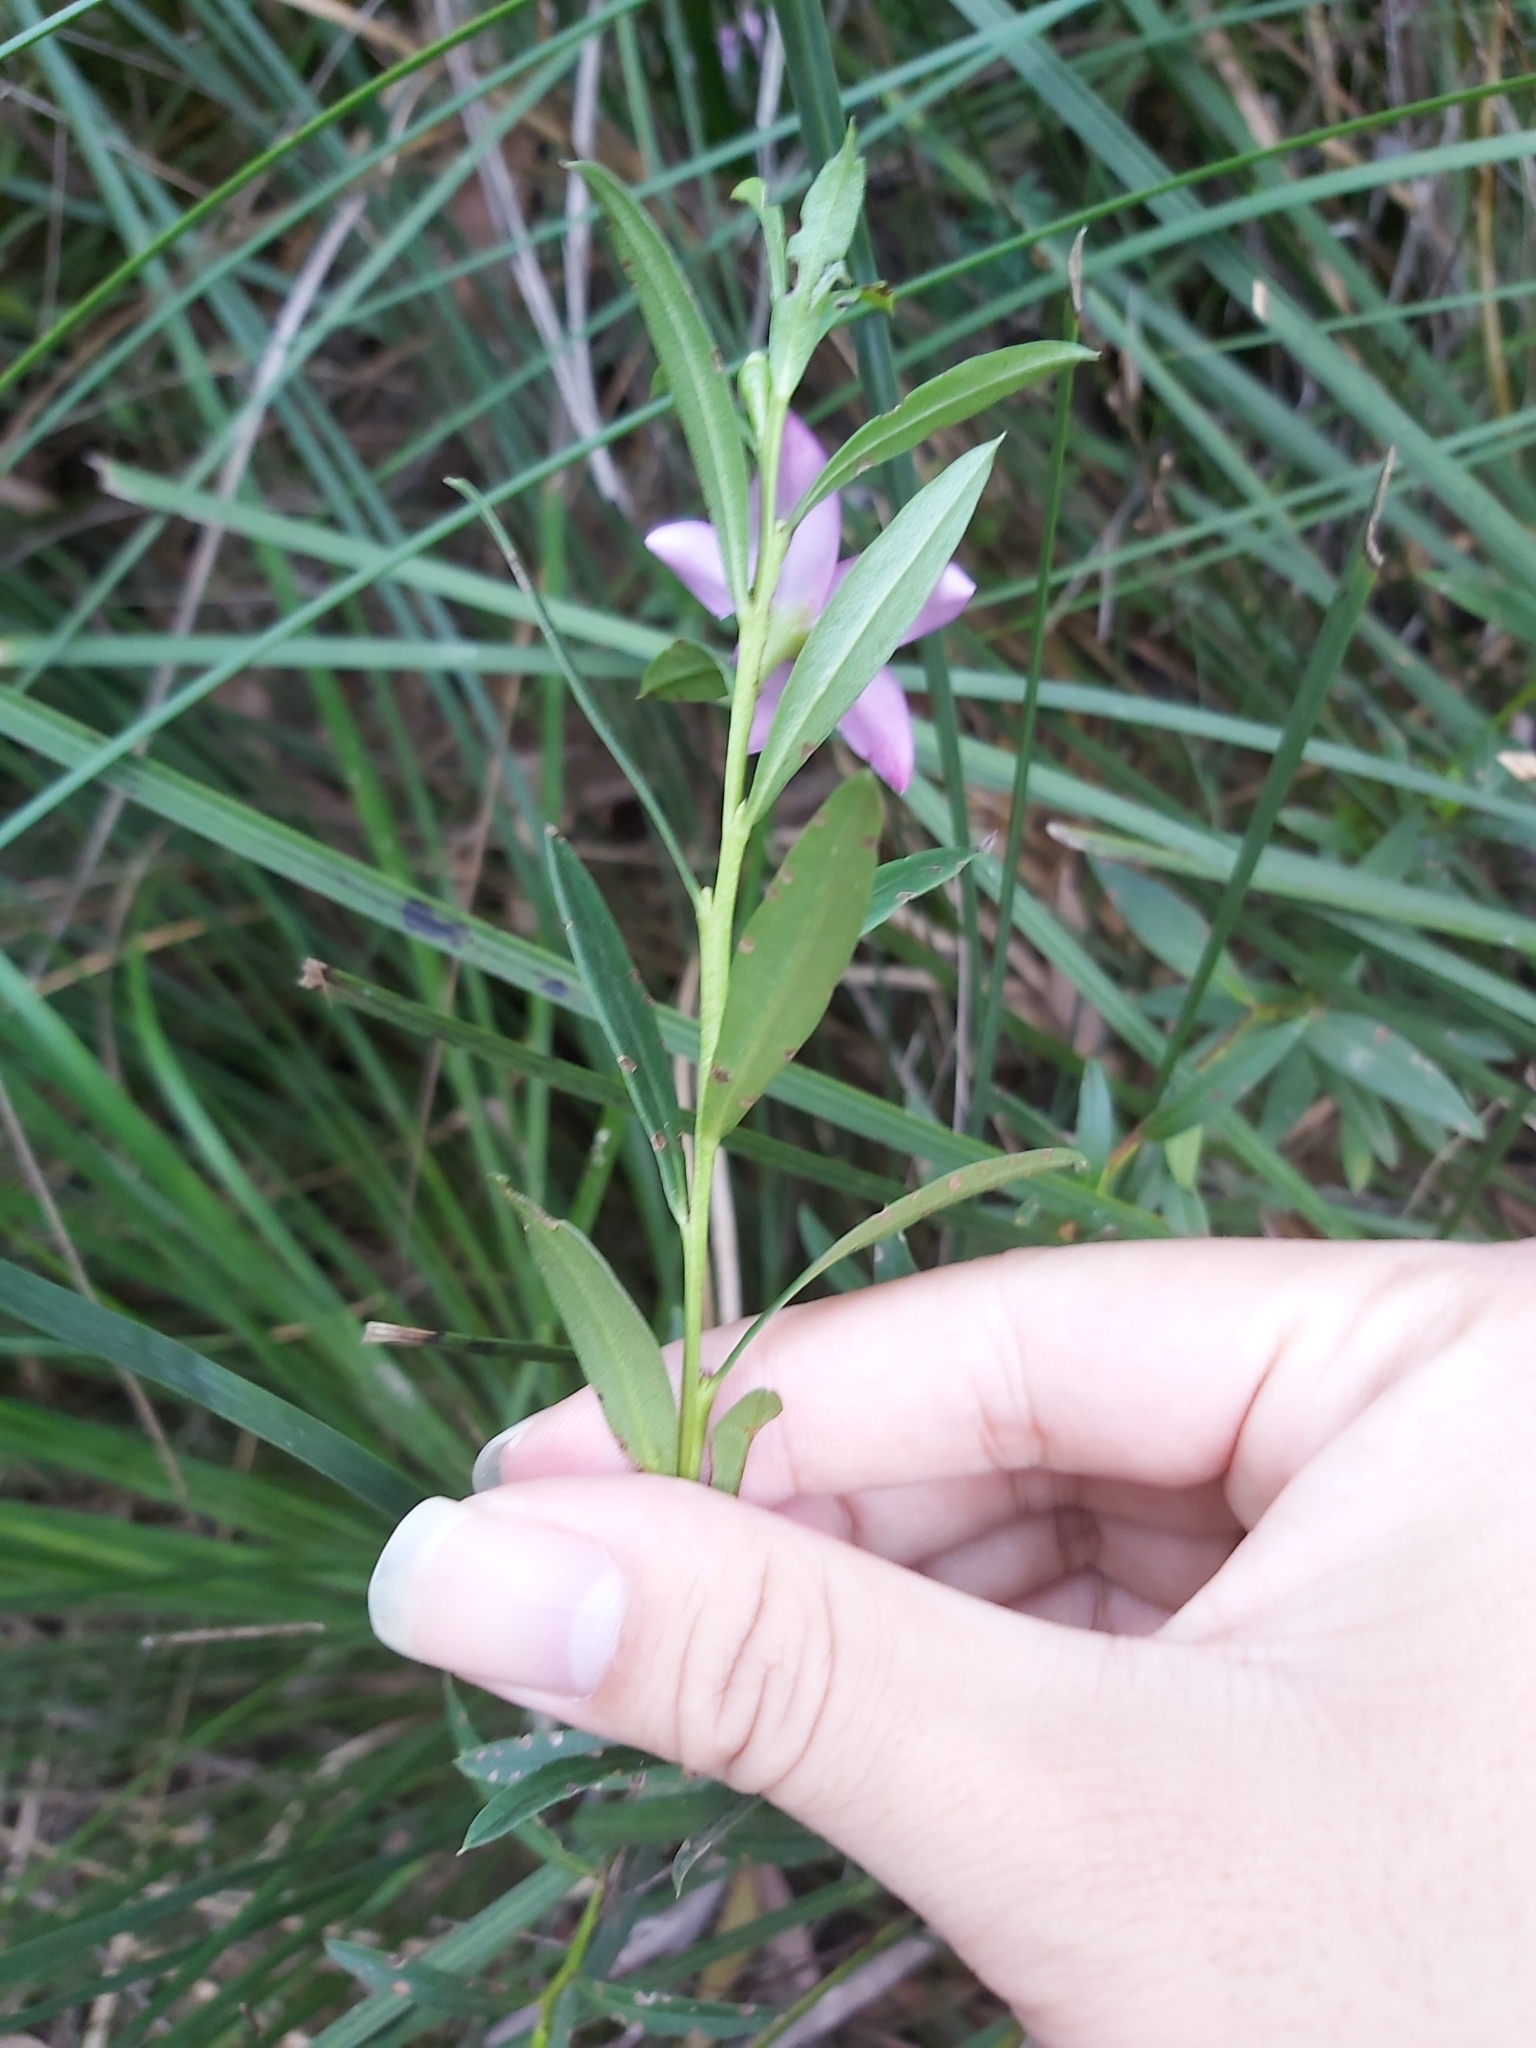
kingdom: Plantae
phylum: Tracheophyta
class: Magnoliopsida
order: Sapindales
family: Rutaceae
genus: Crowea
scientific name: Crowea saligna
